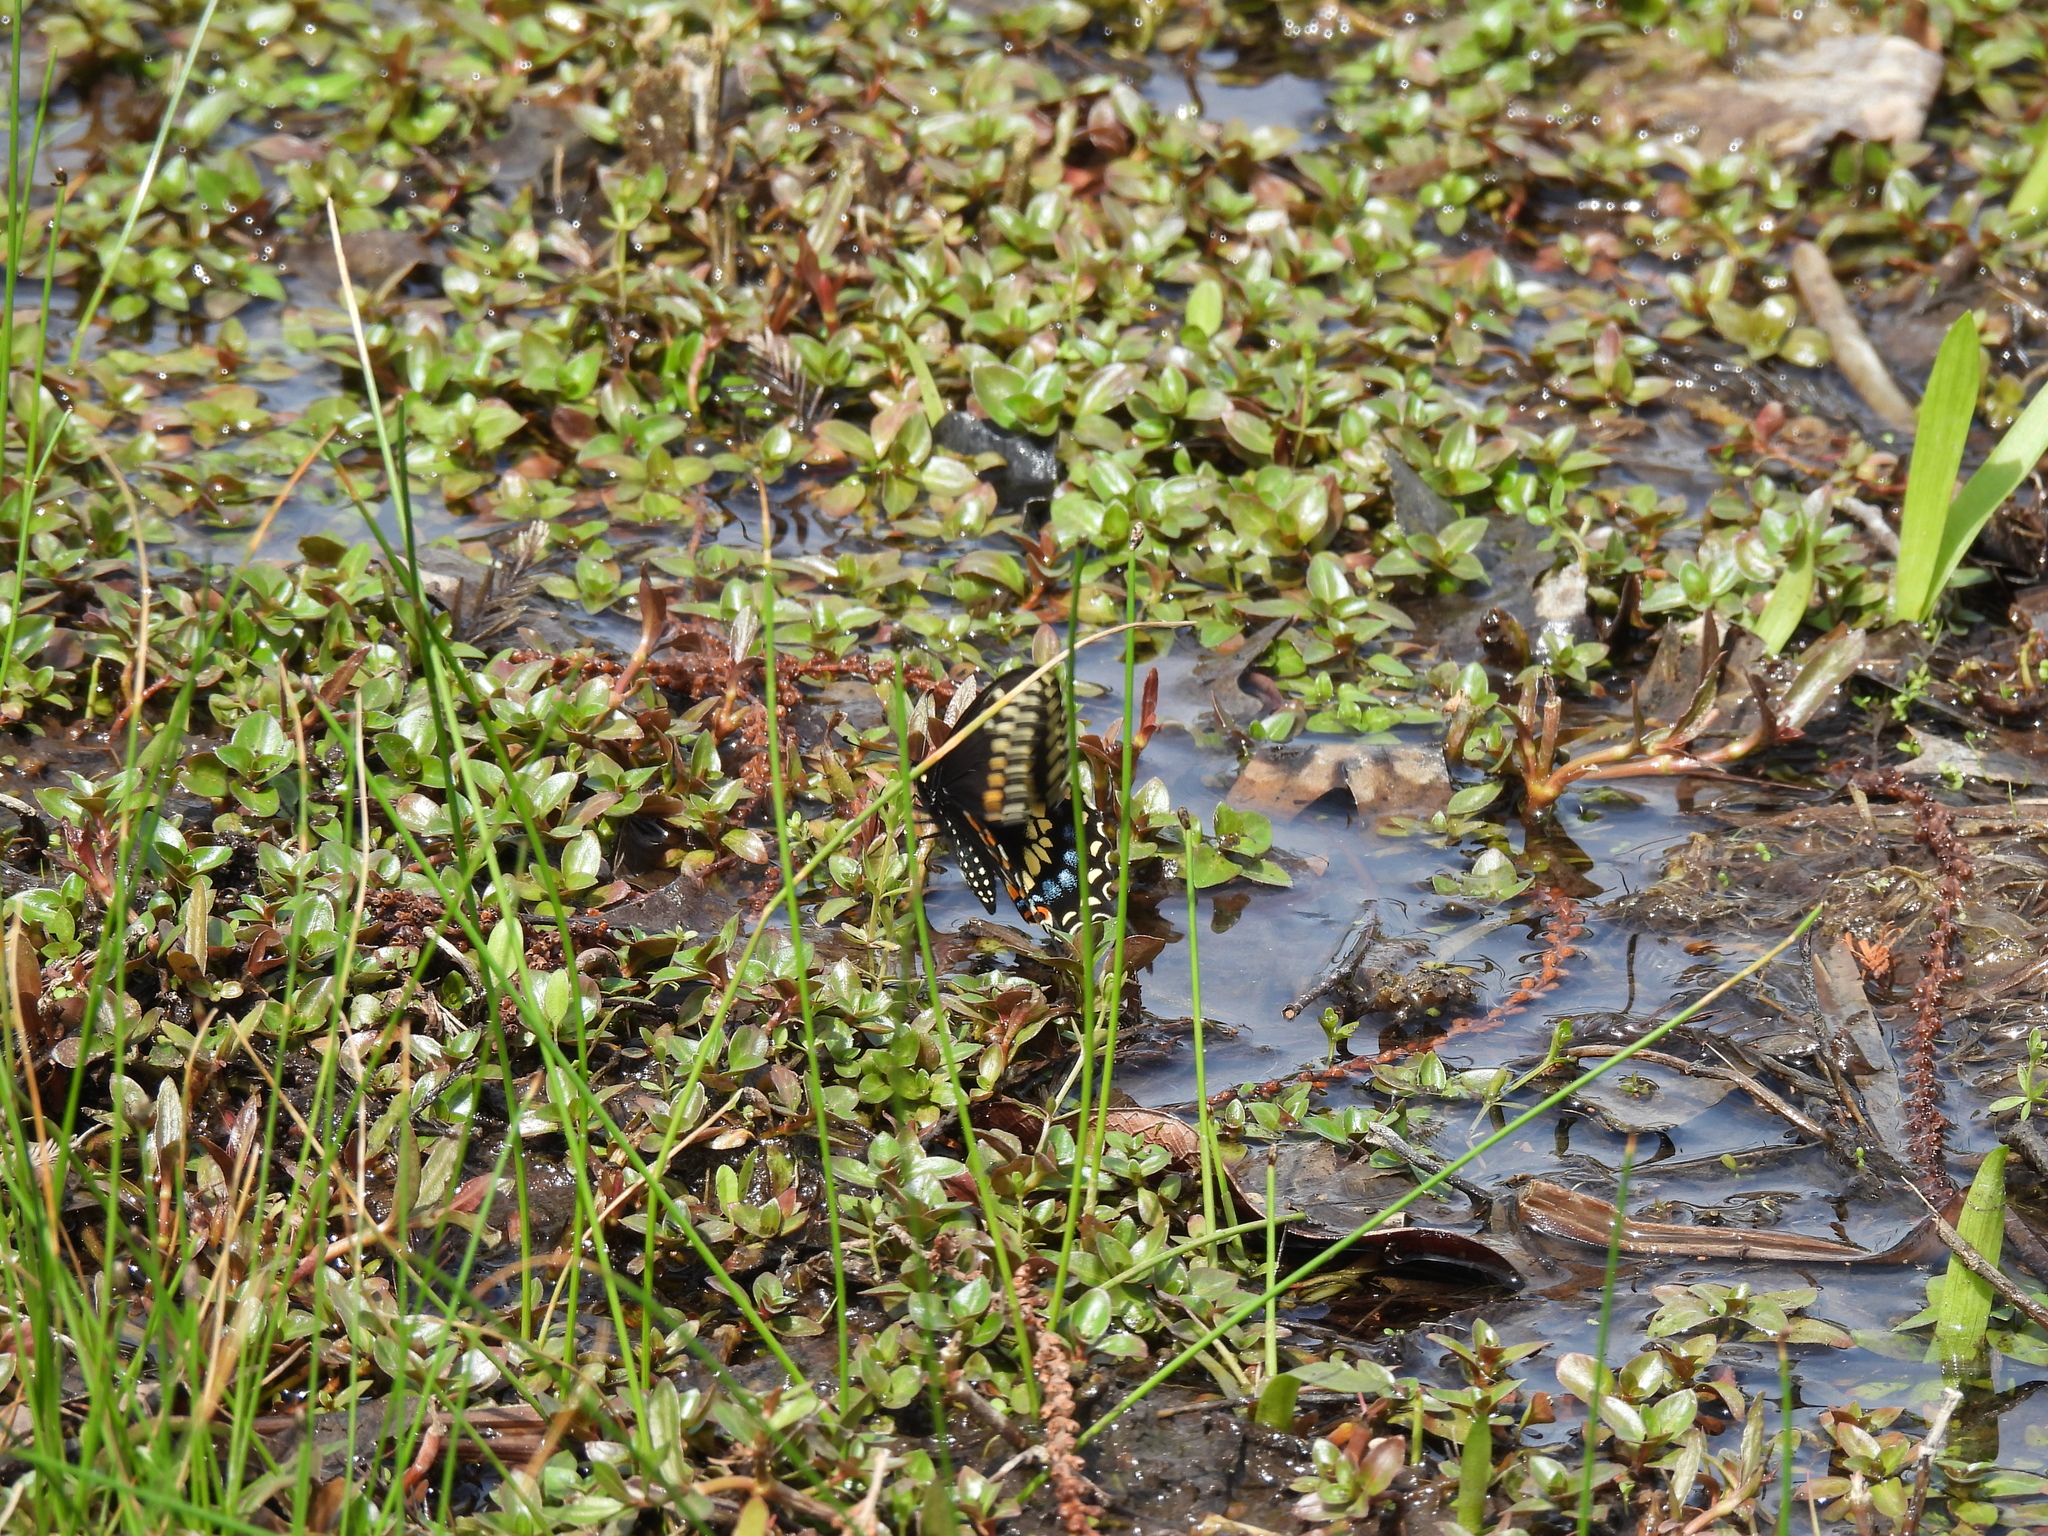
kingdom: Animalia
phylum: Arthropoda
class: Insecta
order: Lepidoptera
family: Papilionidae
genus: Papilio
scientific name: Papilio polyxenes
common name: Black swallowtail
